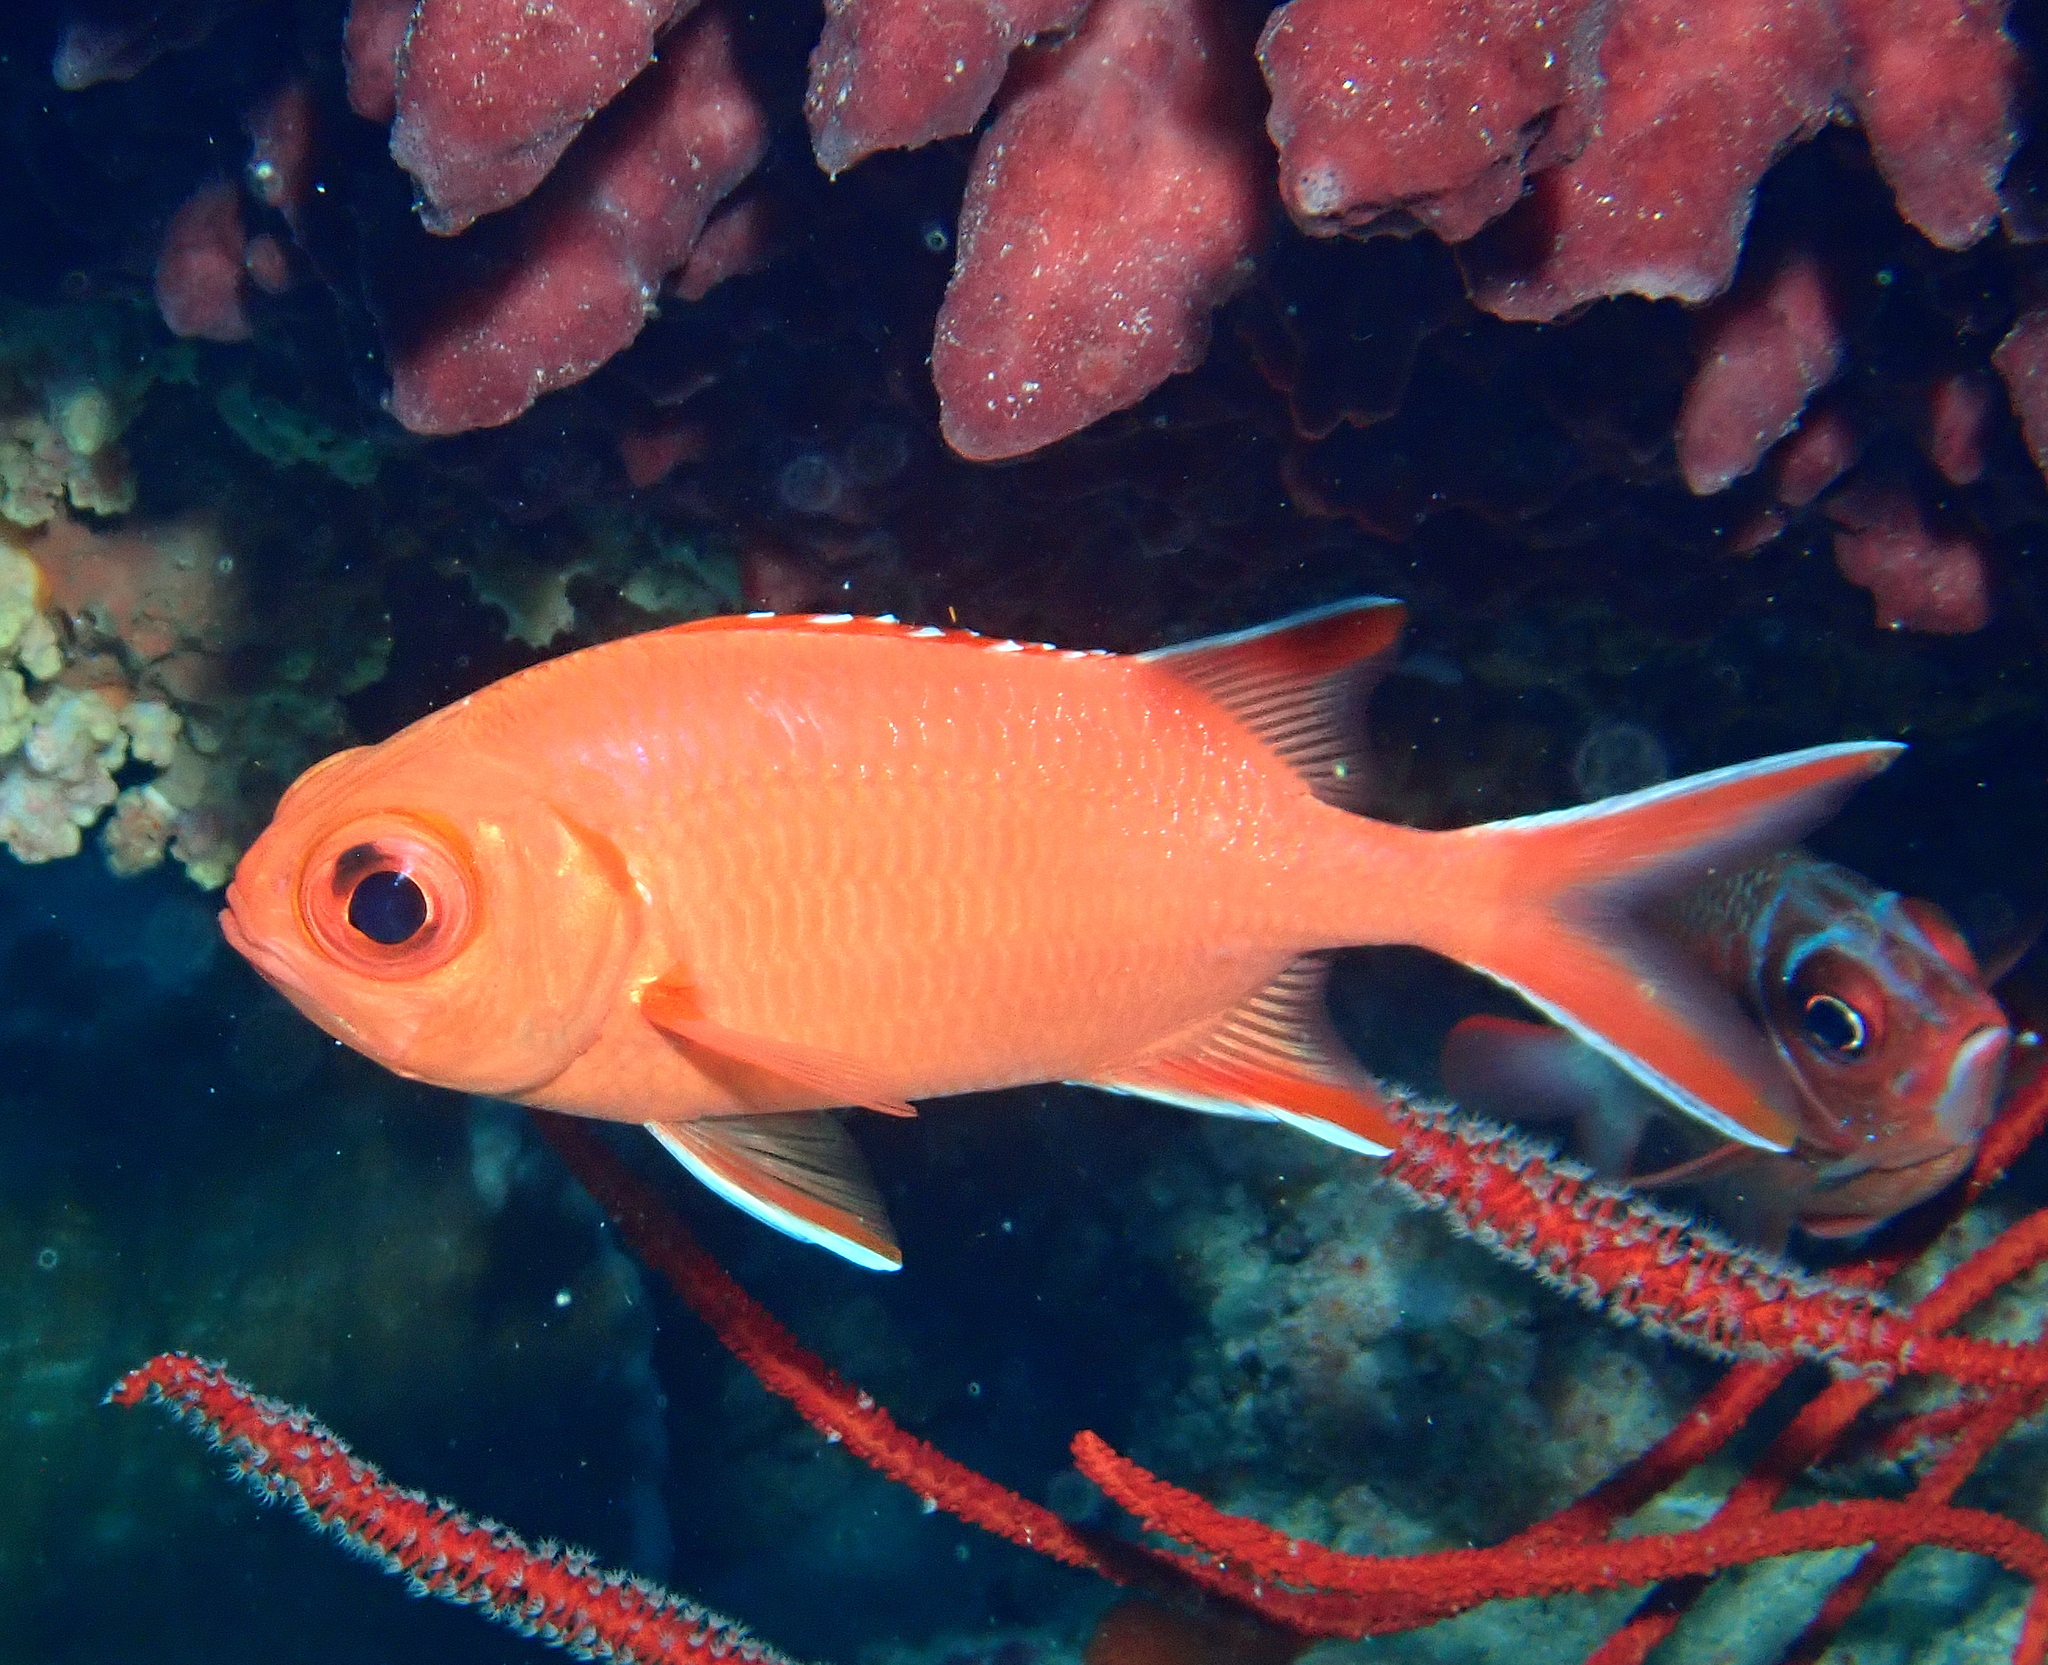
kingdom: Animalia
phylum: Chordata
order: Beryciformes
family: Holocentridae
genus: Myripristis
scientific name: Myripristis vittata
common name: Immaculate squirrelfish
